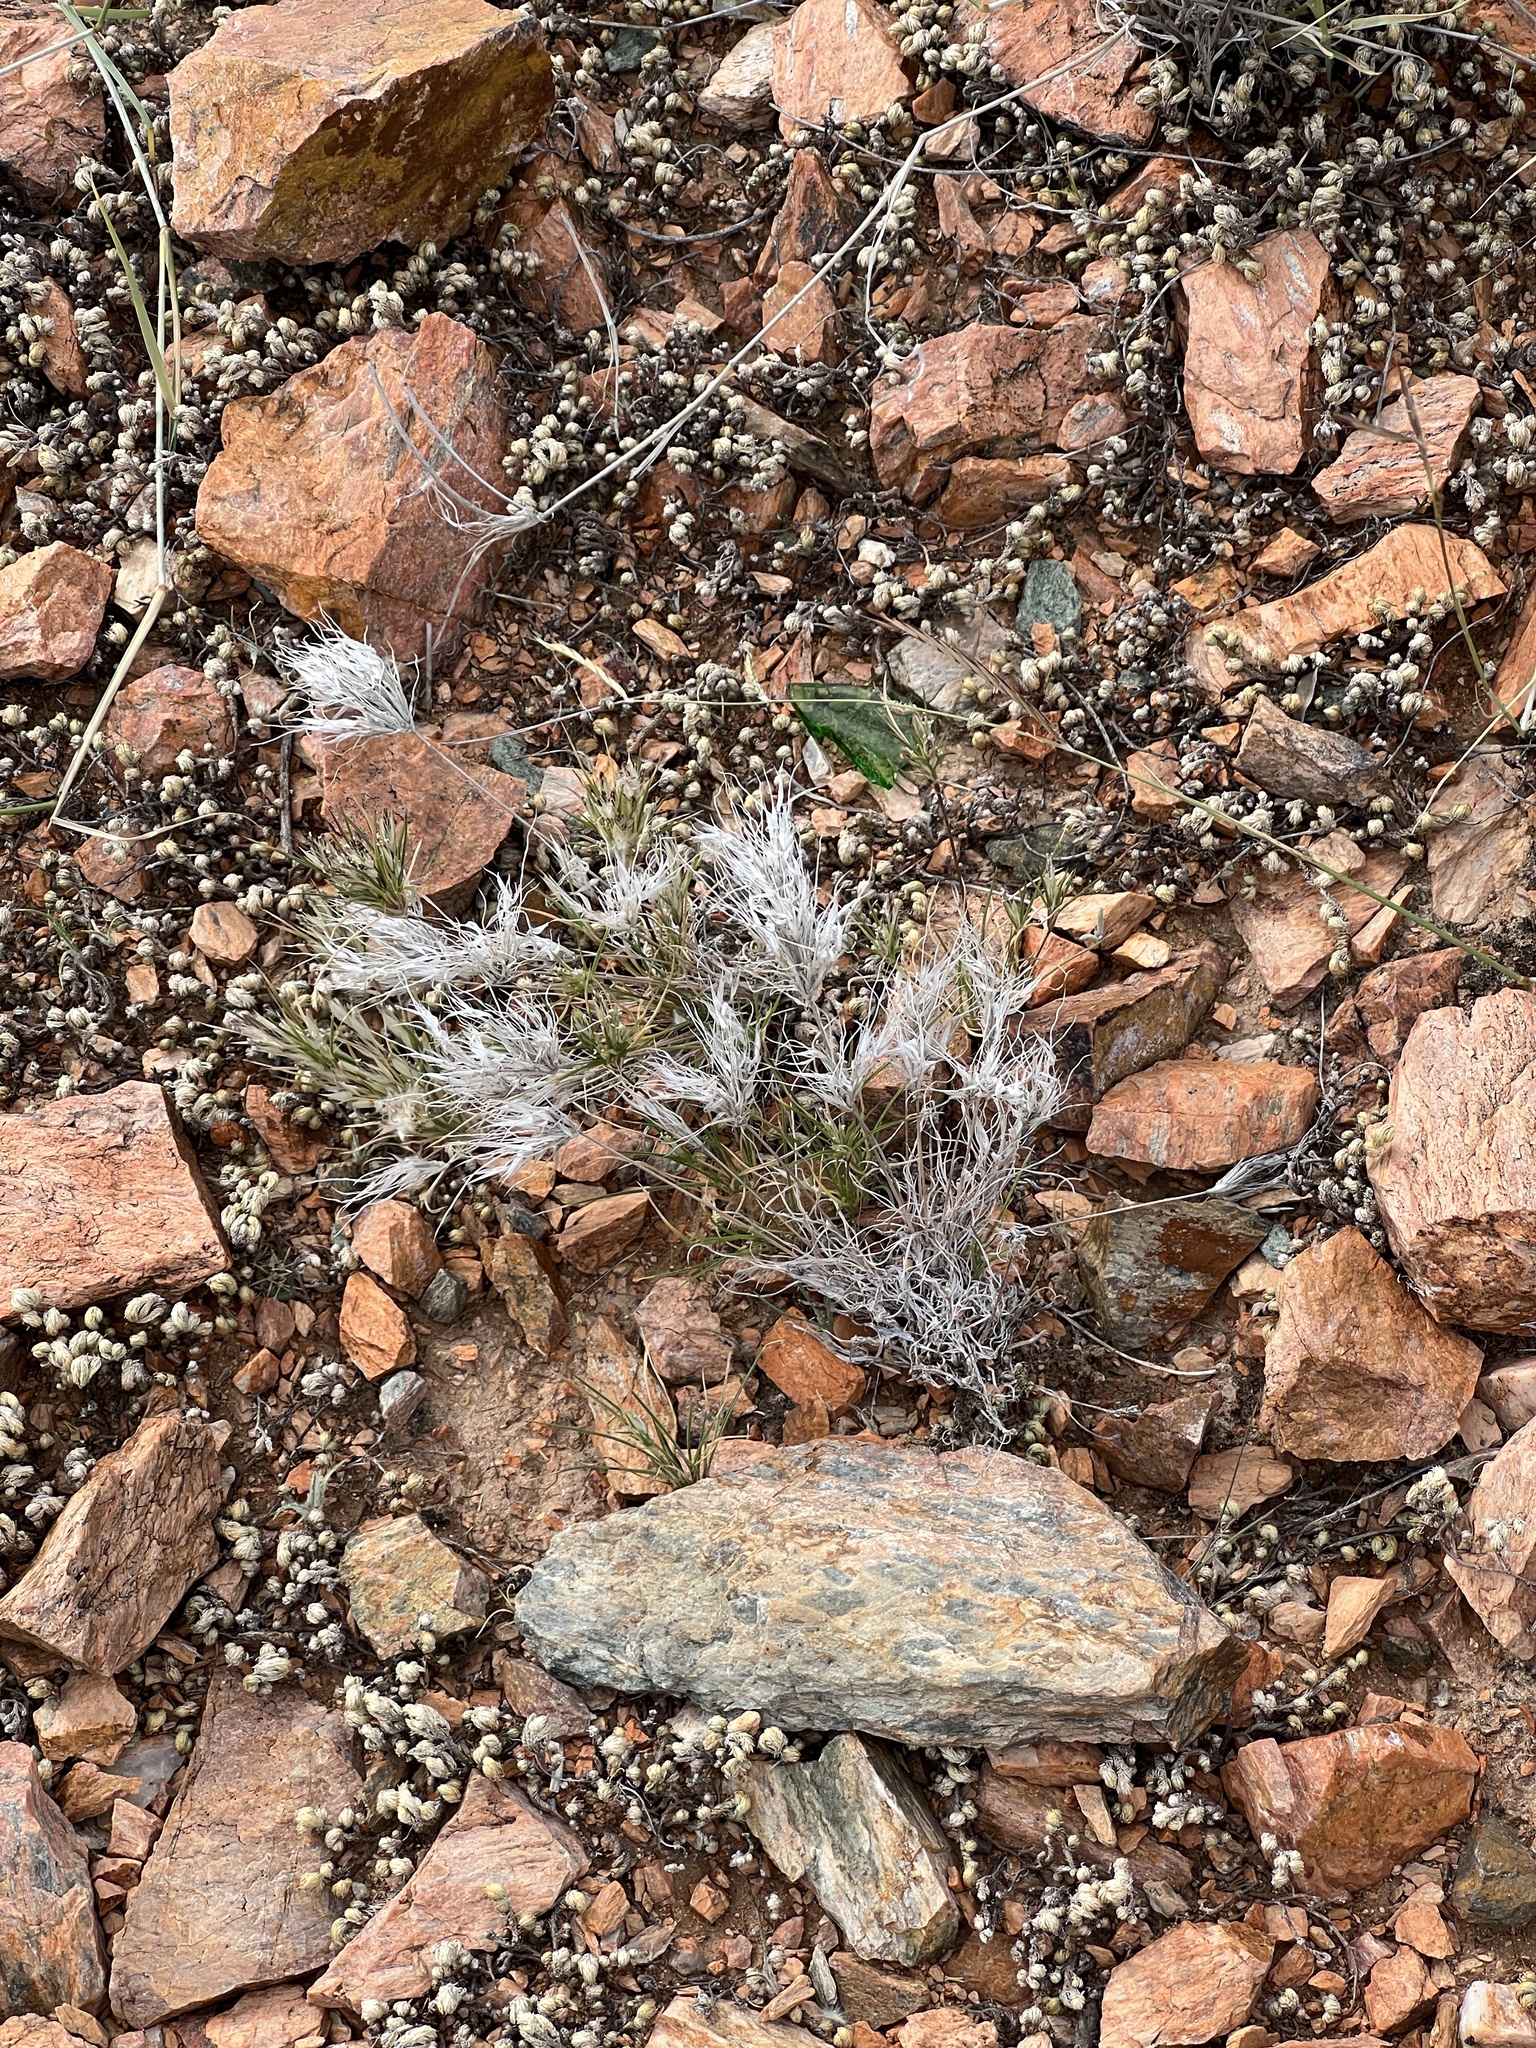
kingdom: Plantae
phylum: Tracheophyta
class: Liliopsida
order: Poales
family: Poaceae
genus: Dasyochloa
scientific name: Dasyochloa pulchella
